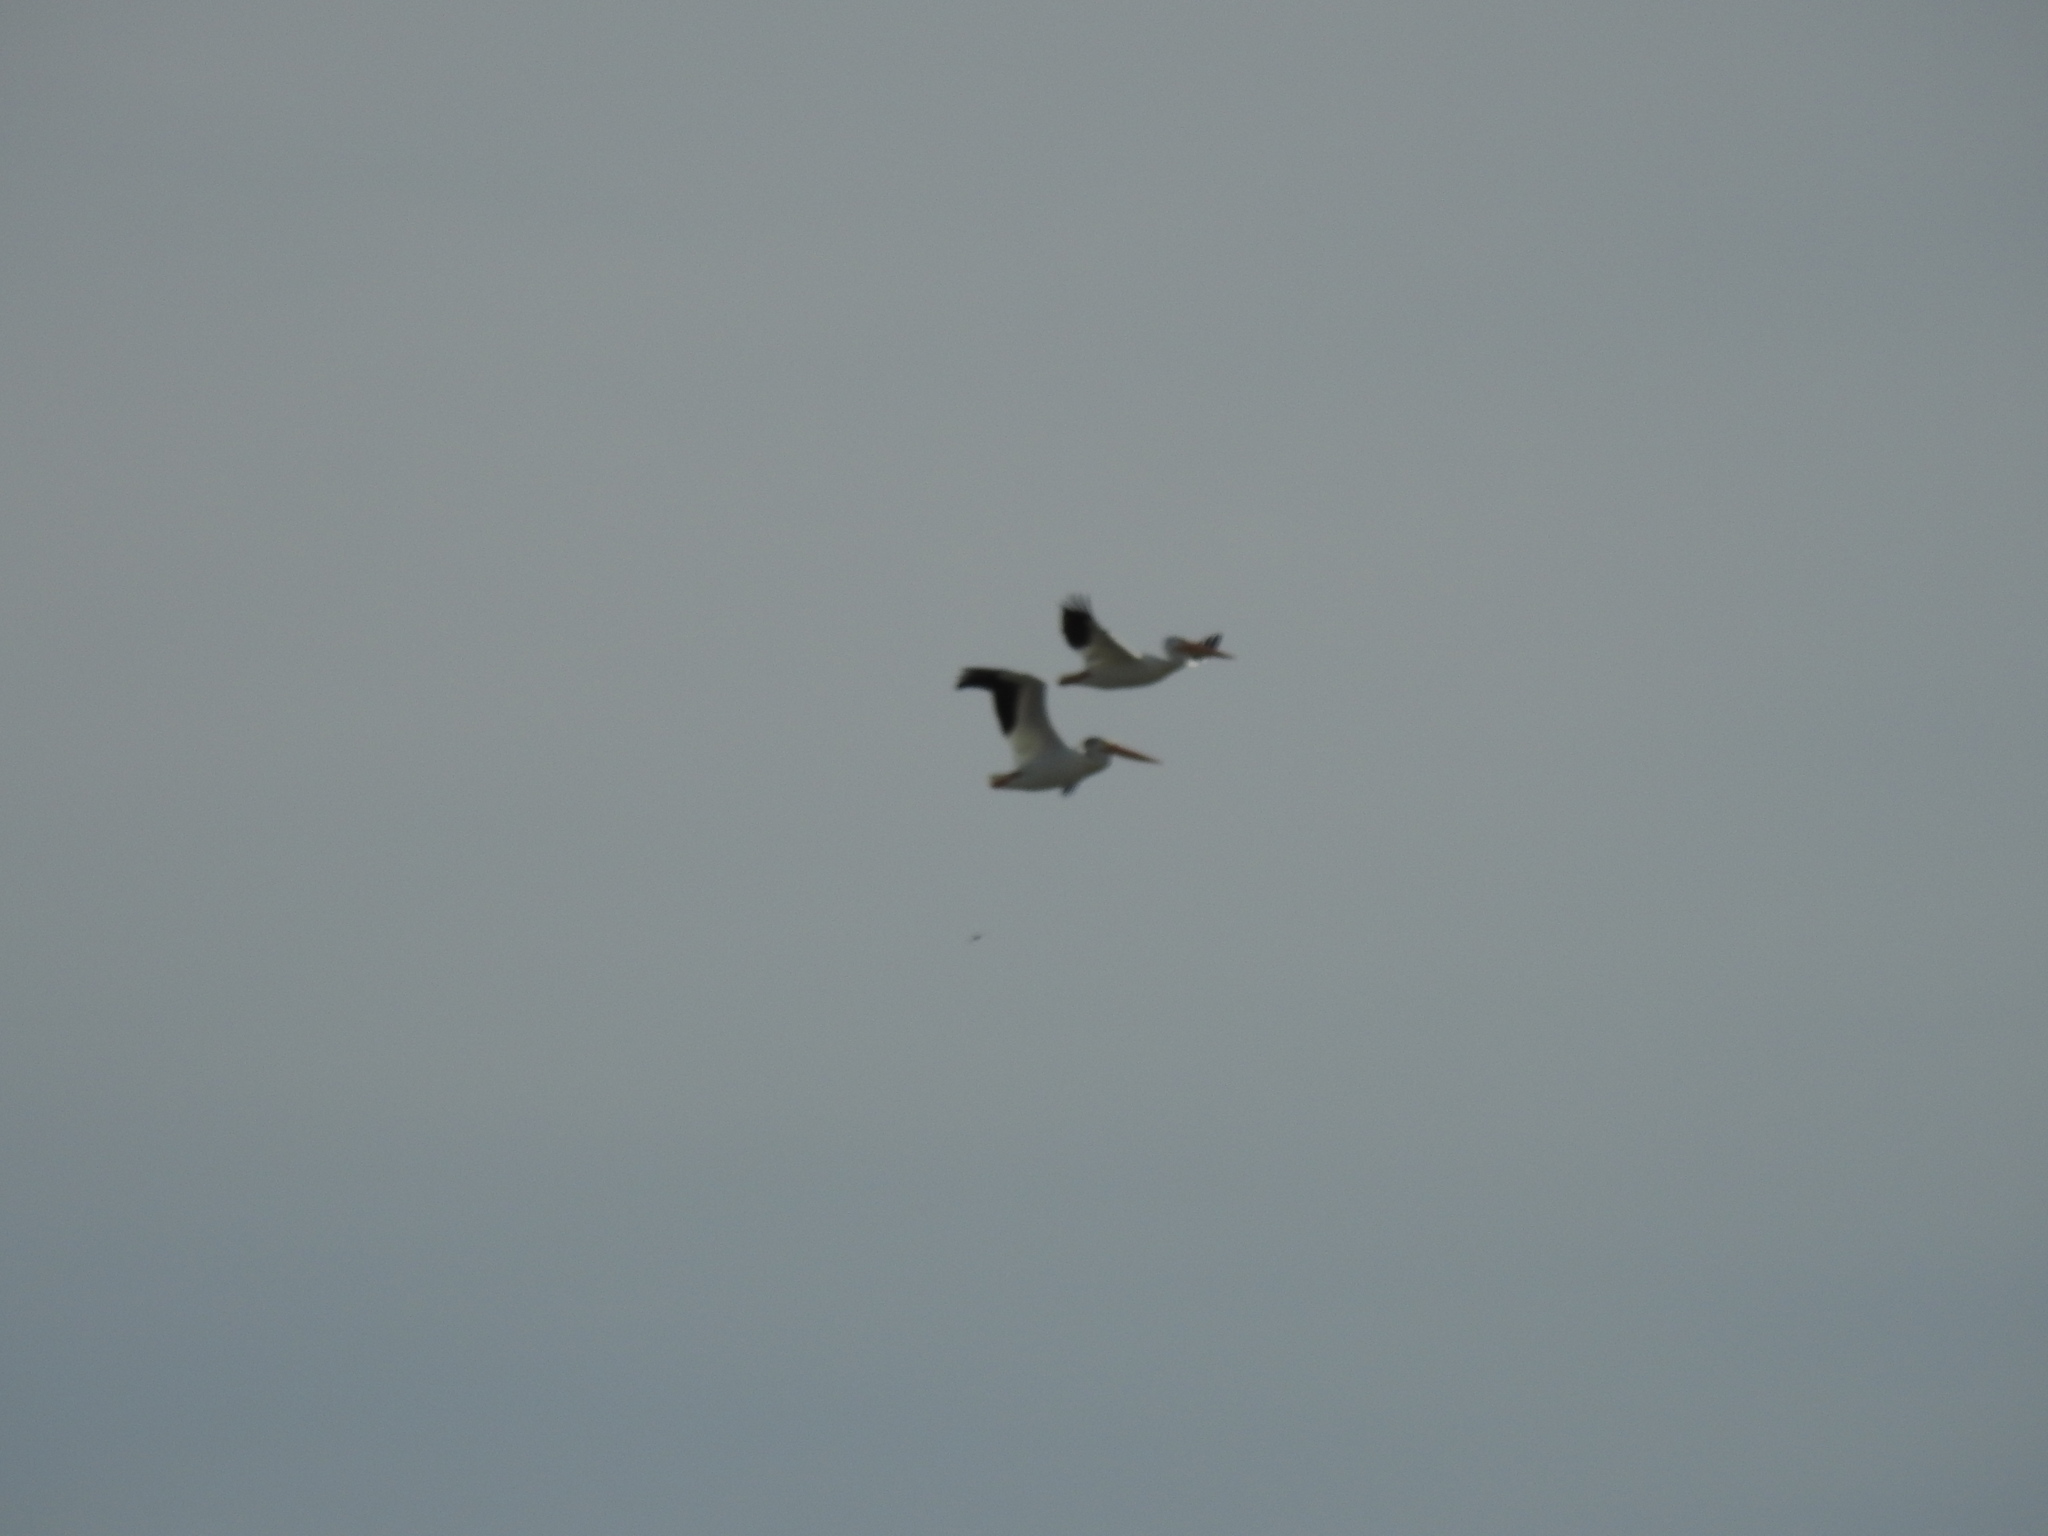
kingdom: Animalia
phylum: Chordata
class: Aves
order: Pelecaniformes
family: Pelecanidae
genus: Pelecanus
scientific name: Pelecanus erythrorhynchos
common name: American white pelican
